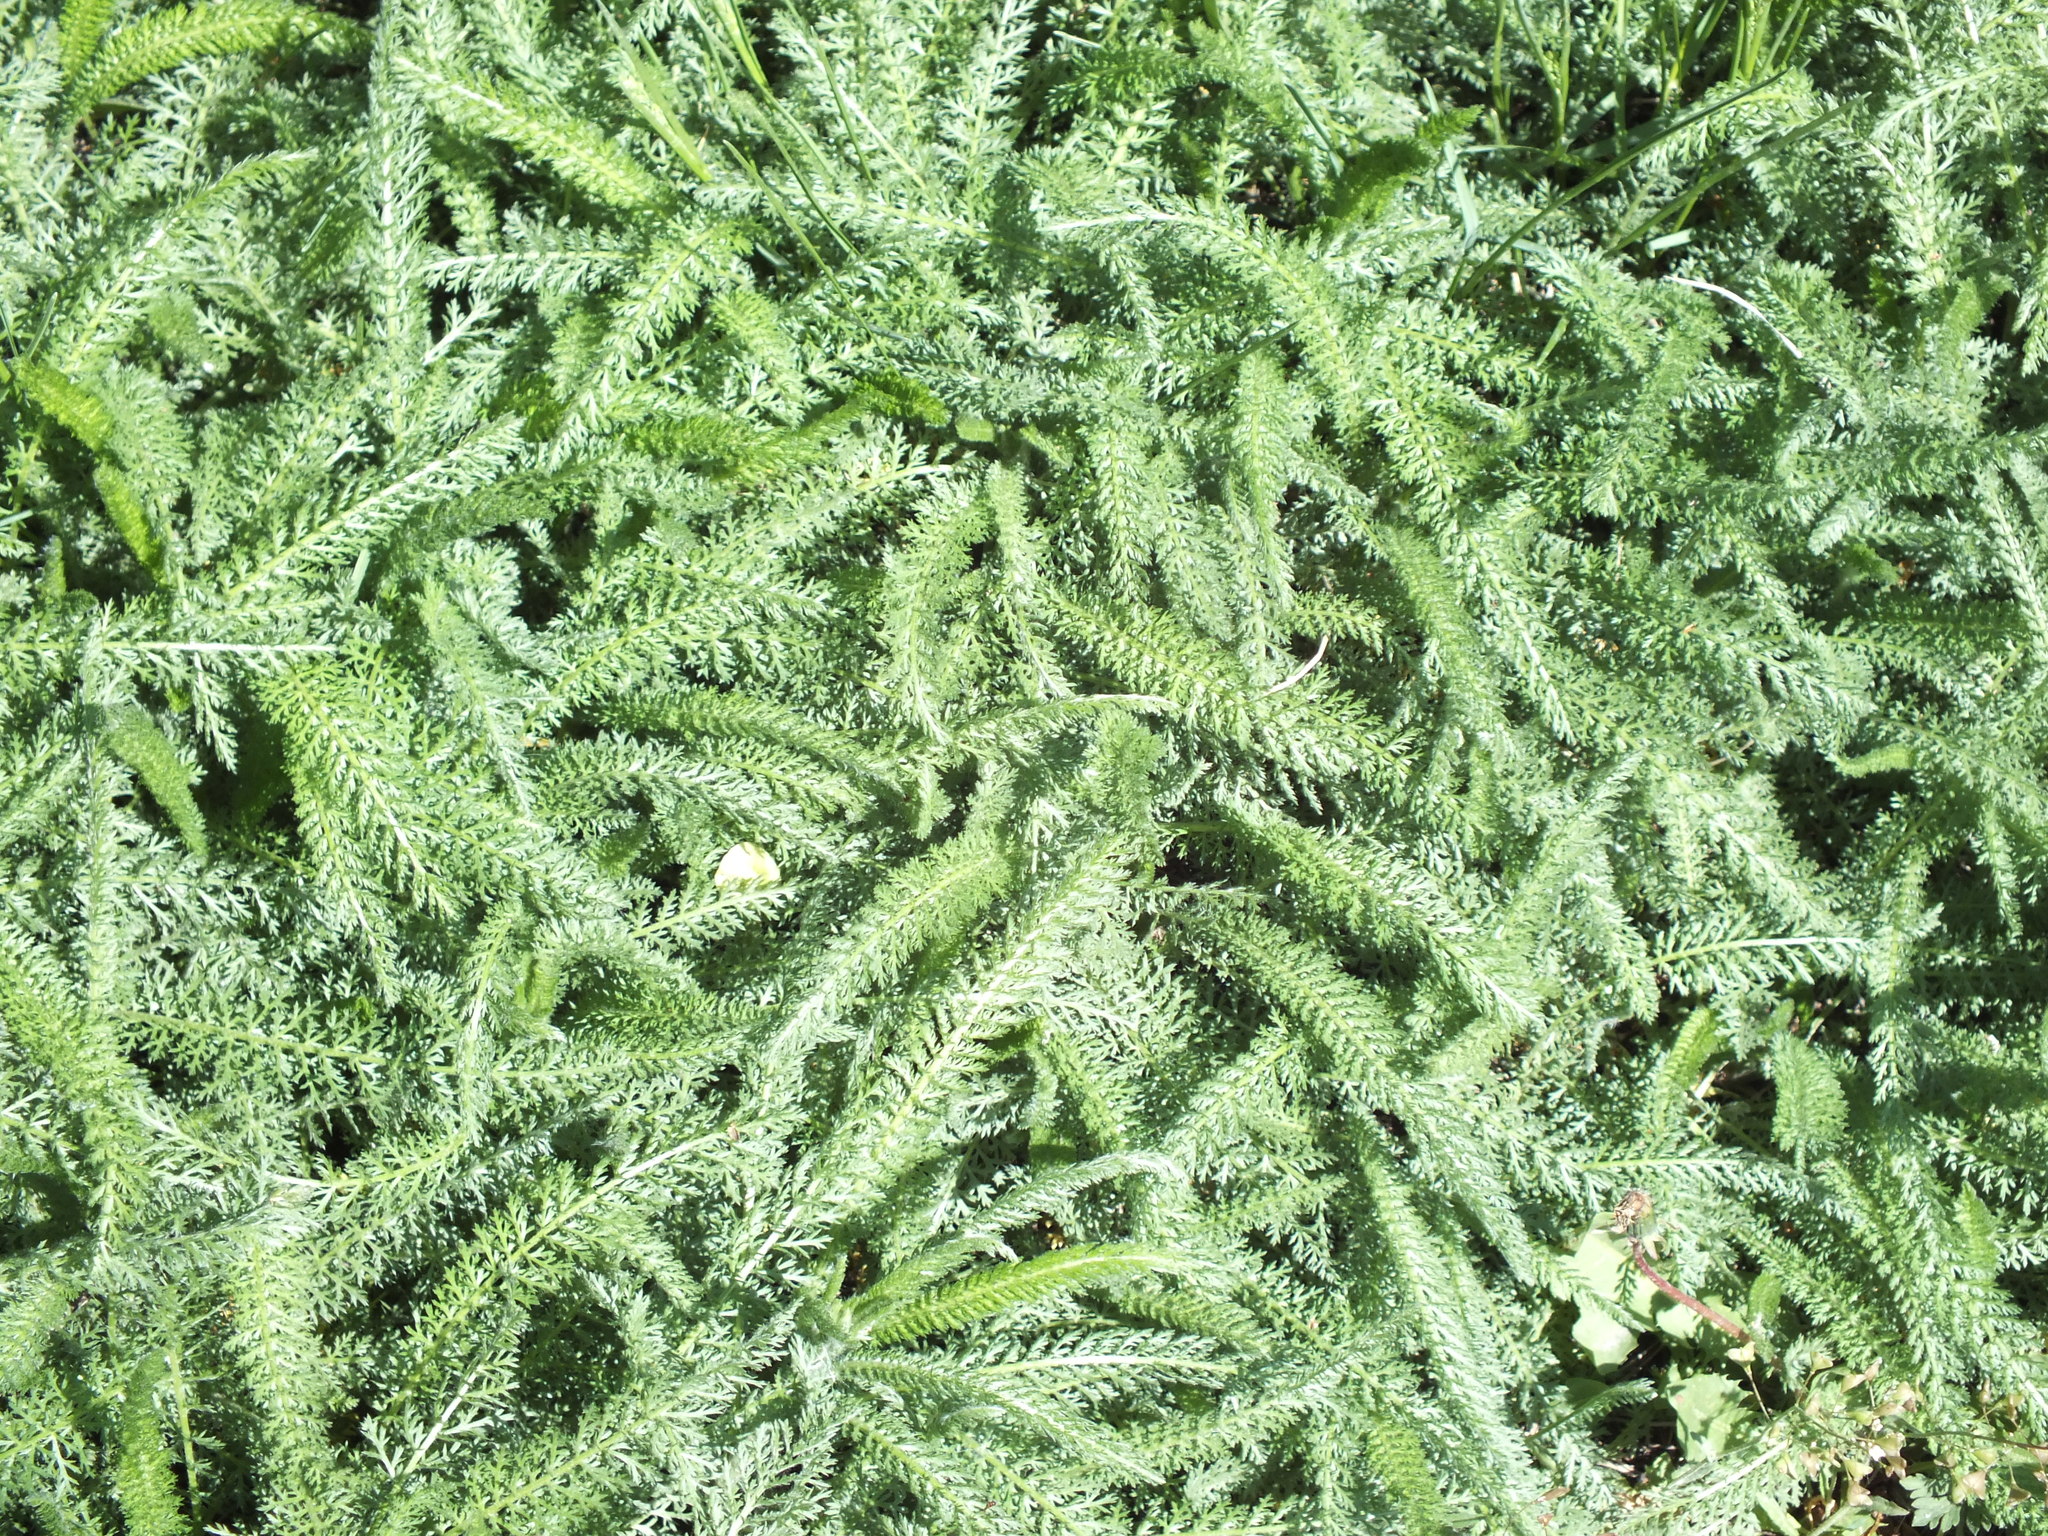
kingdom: Plantae
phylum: Tracheophyta
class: Magnoliopsida
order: Asterales
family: Asteraceae
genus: Achillea
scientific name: Achillea millefolium
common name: Yarrow
